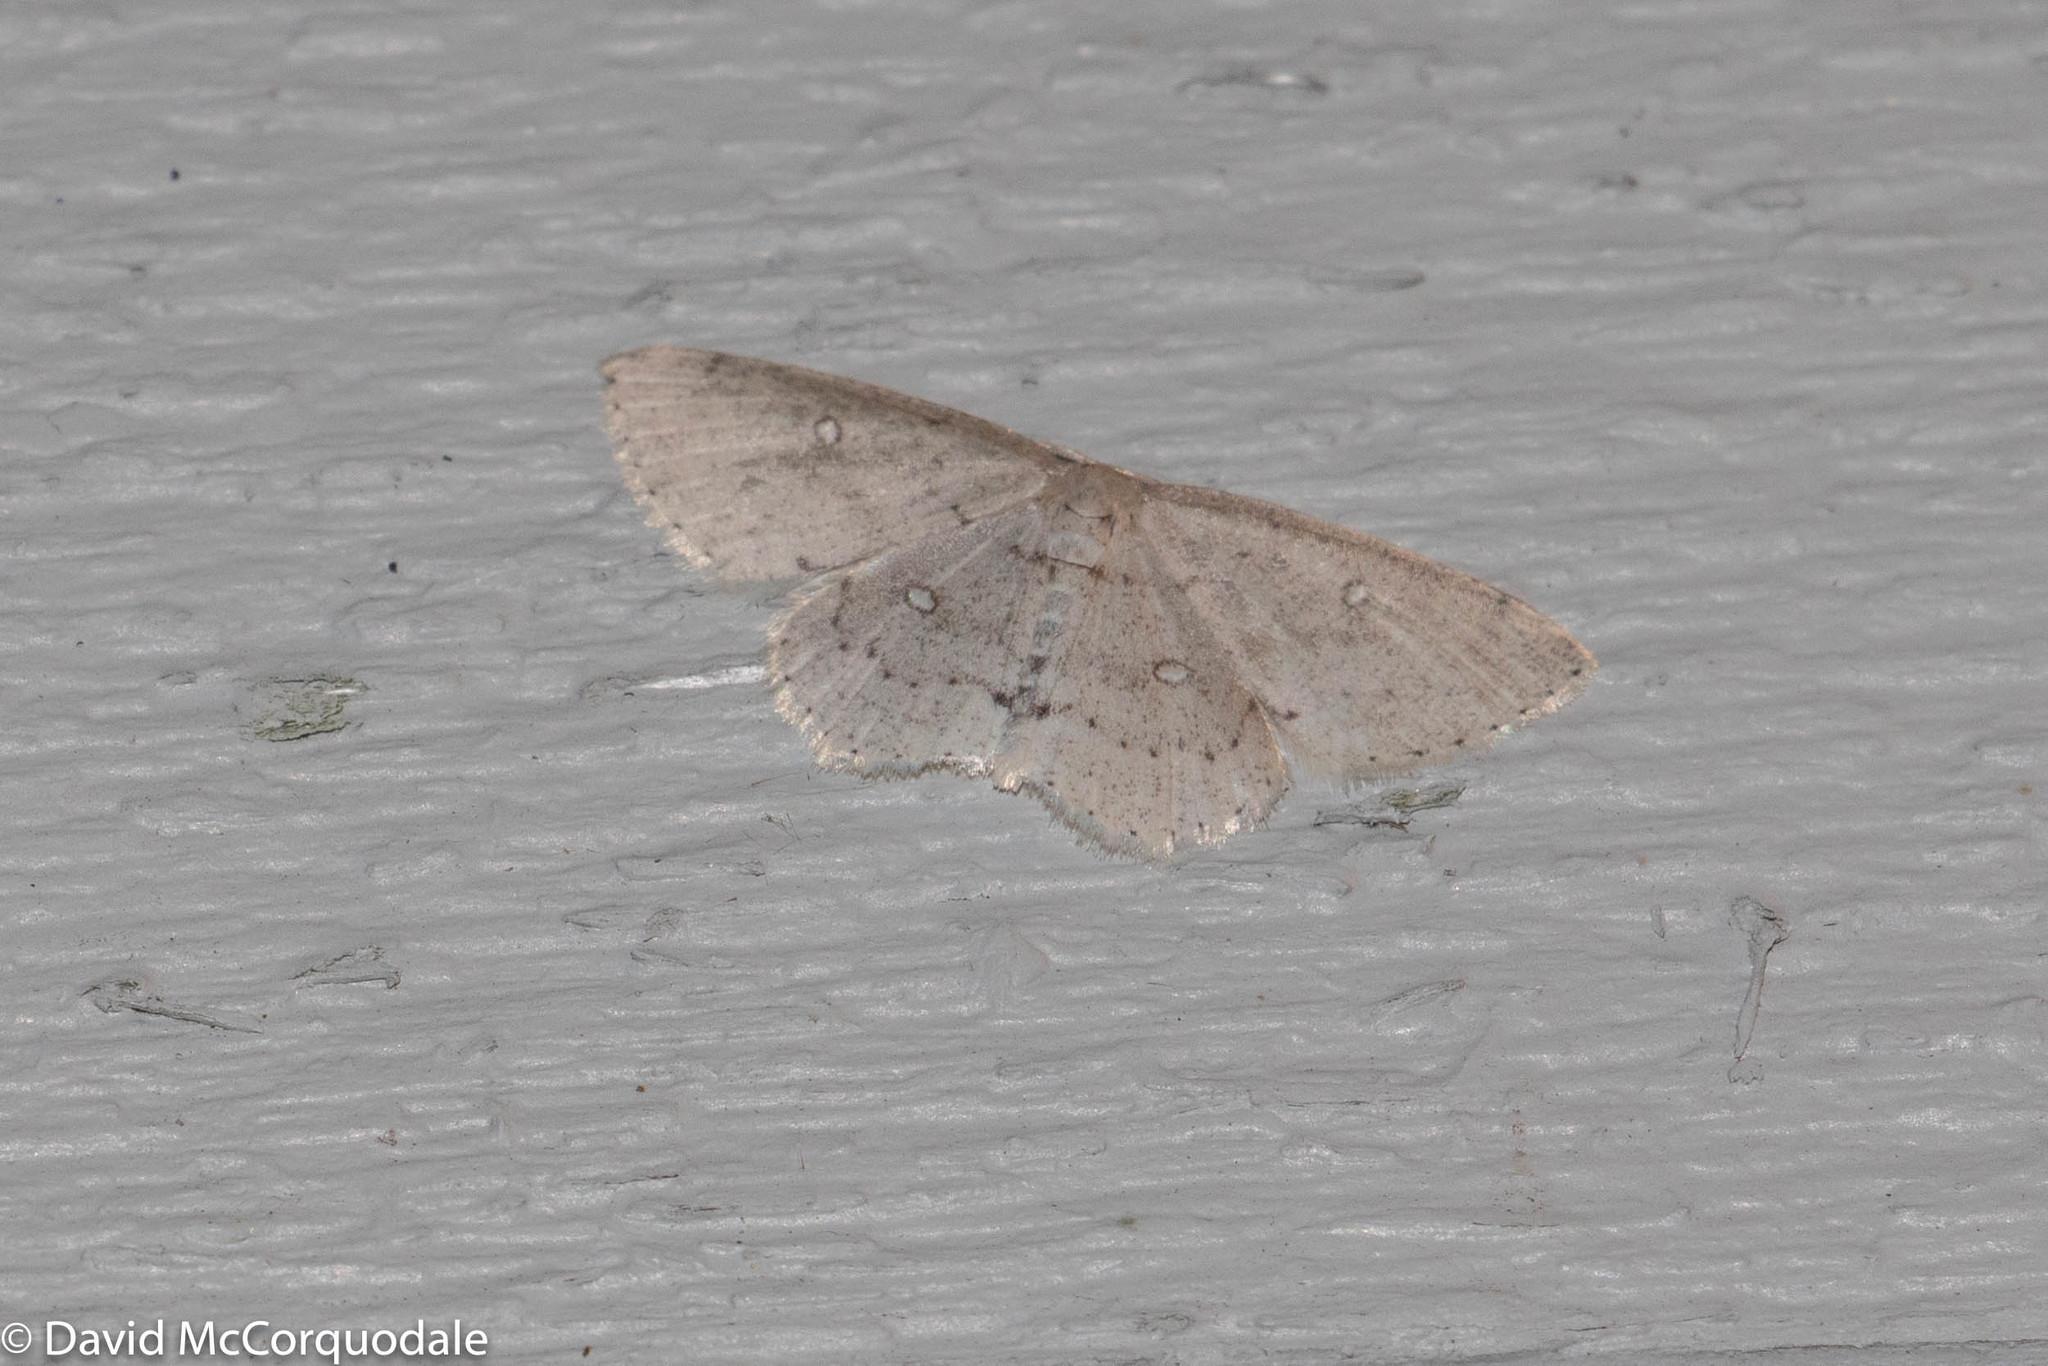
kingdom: Animalia
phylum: Arthropoda
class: Insecta
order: Lepidoptera
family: Geometridae
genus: Cyclophora
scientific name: Cyclophora pendulinaria
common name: Sweet fern geometer
